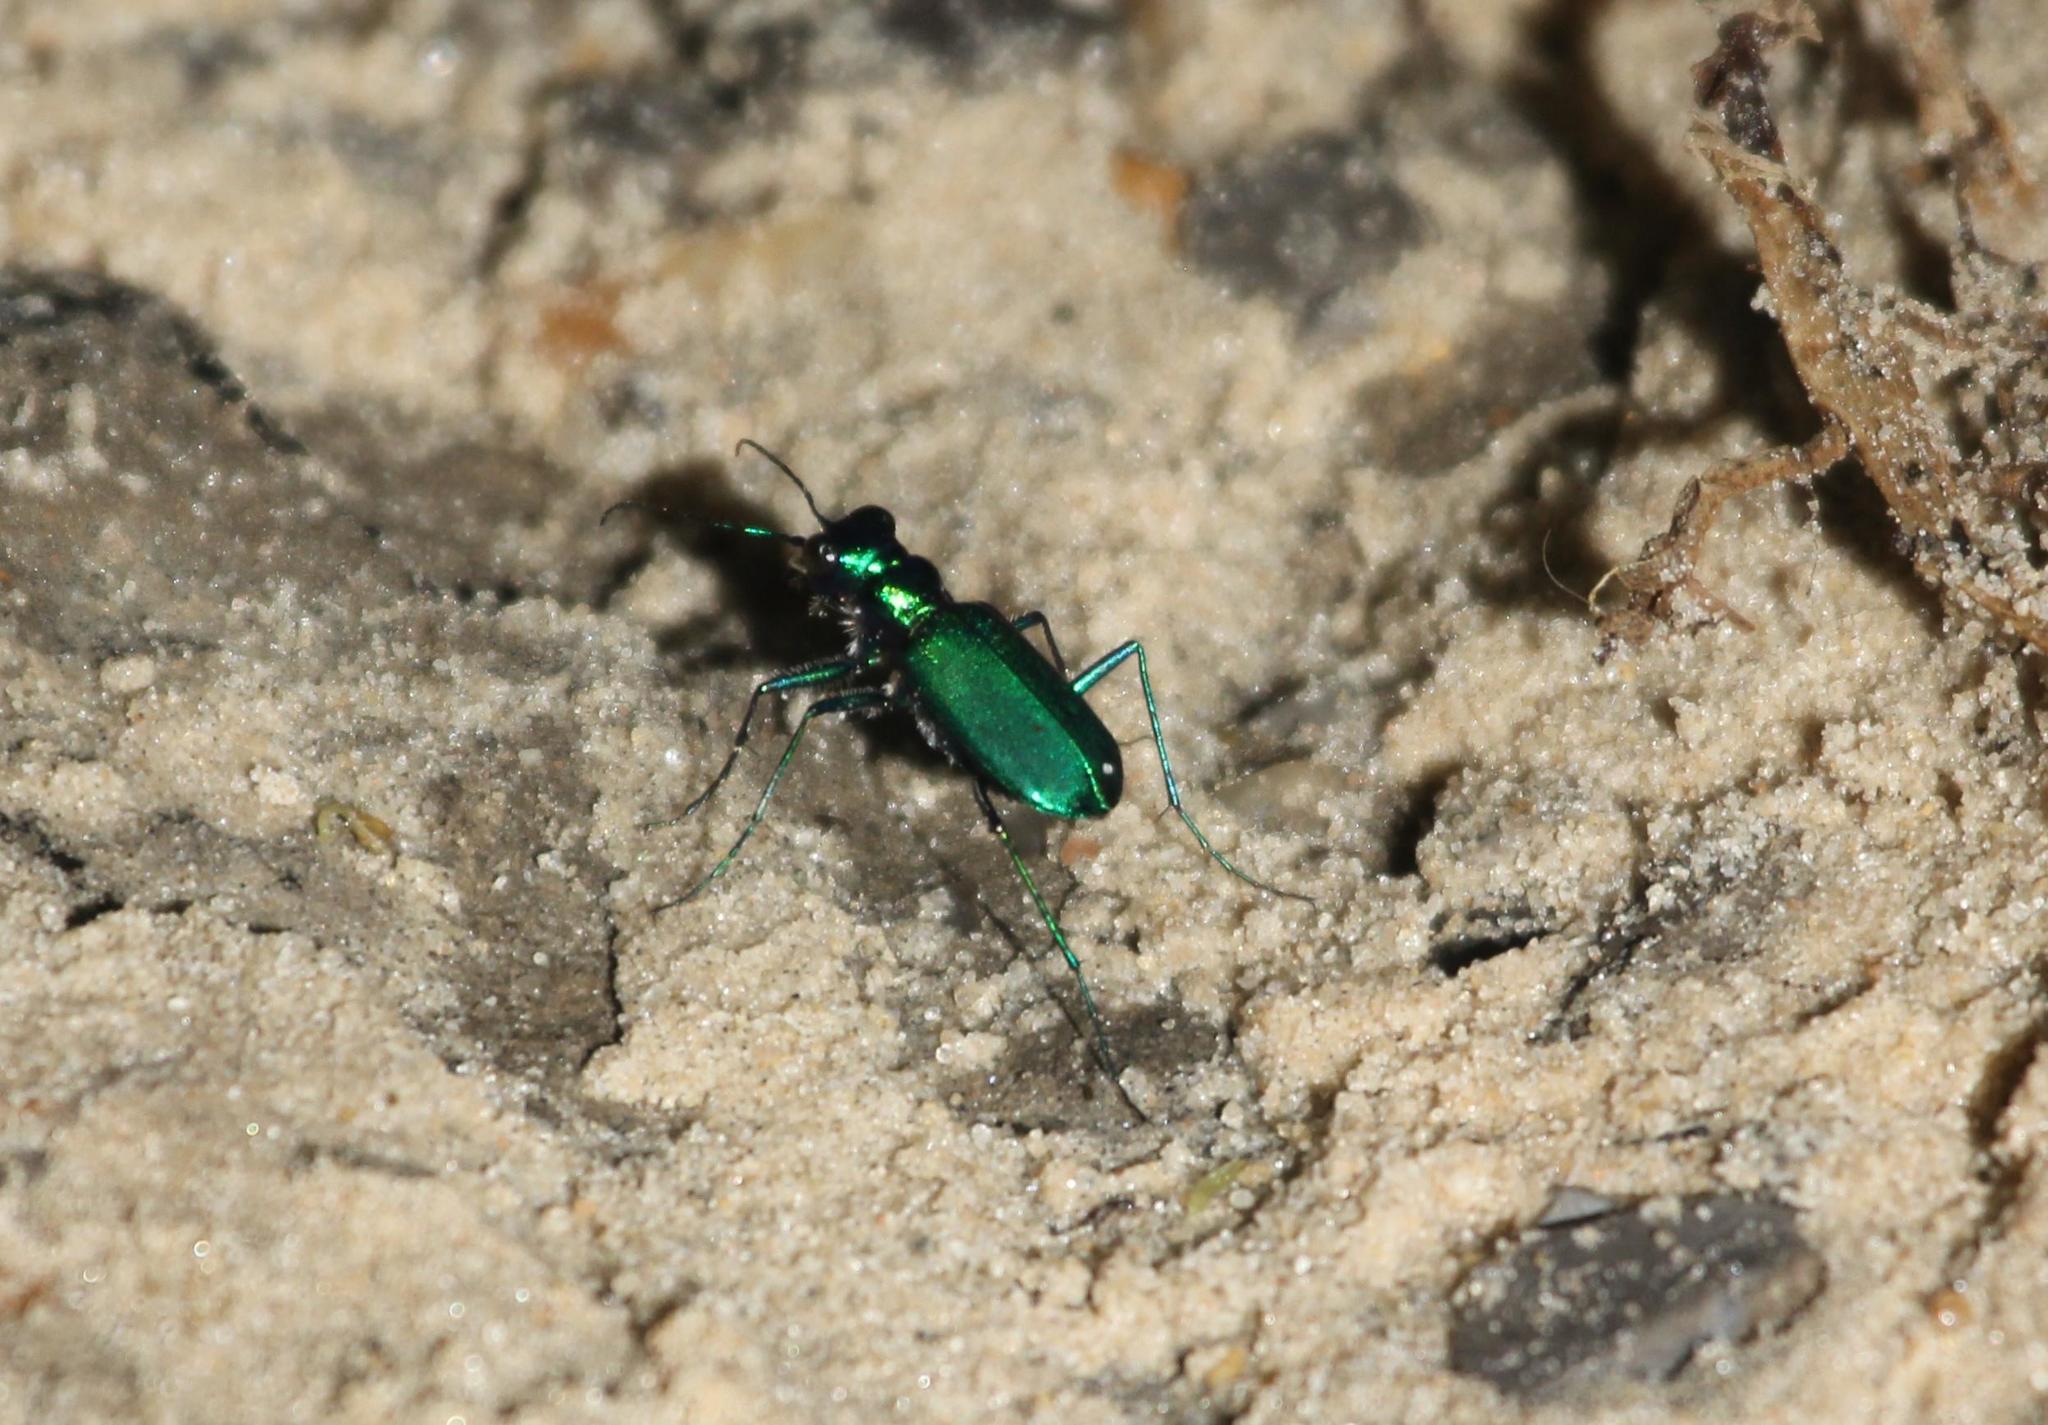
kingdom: Animalia
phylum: Arthropoda
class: Insecta
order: Coleoptera
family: Carabidae
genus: Cicindela
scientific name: Cicindela sexguttata
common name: Six-spotted tiger beetle
